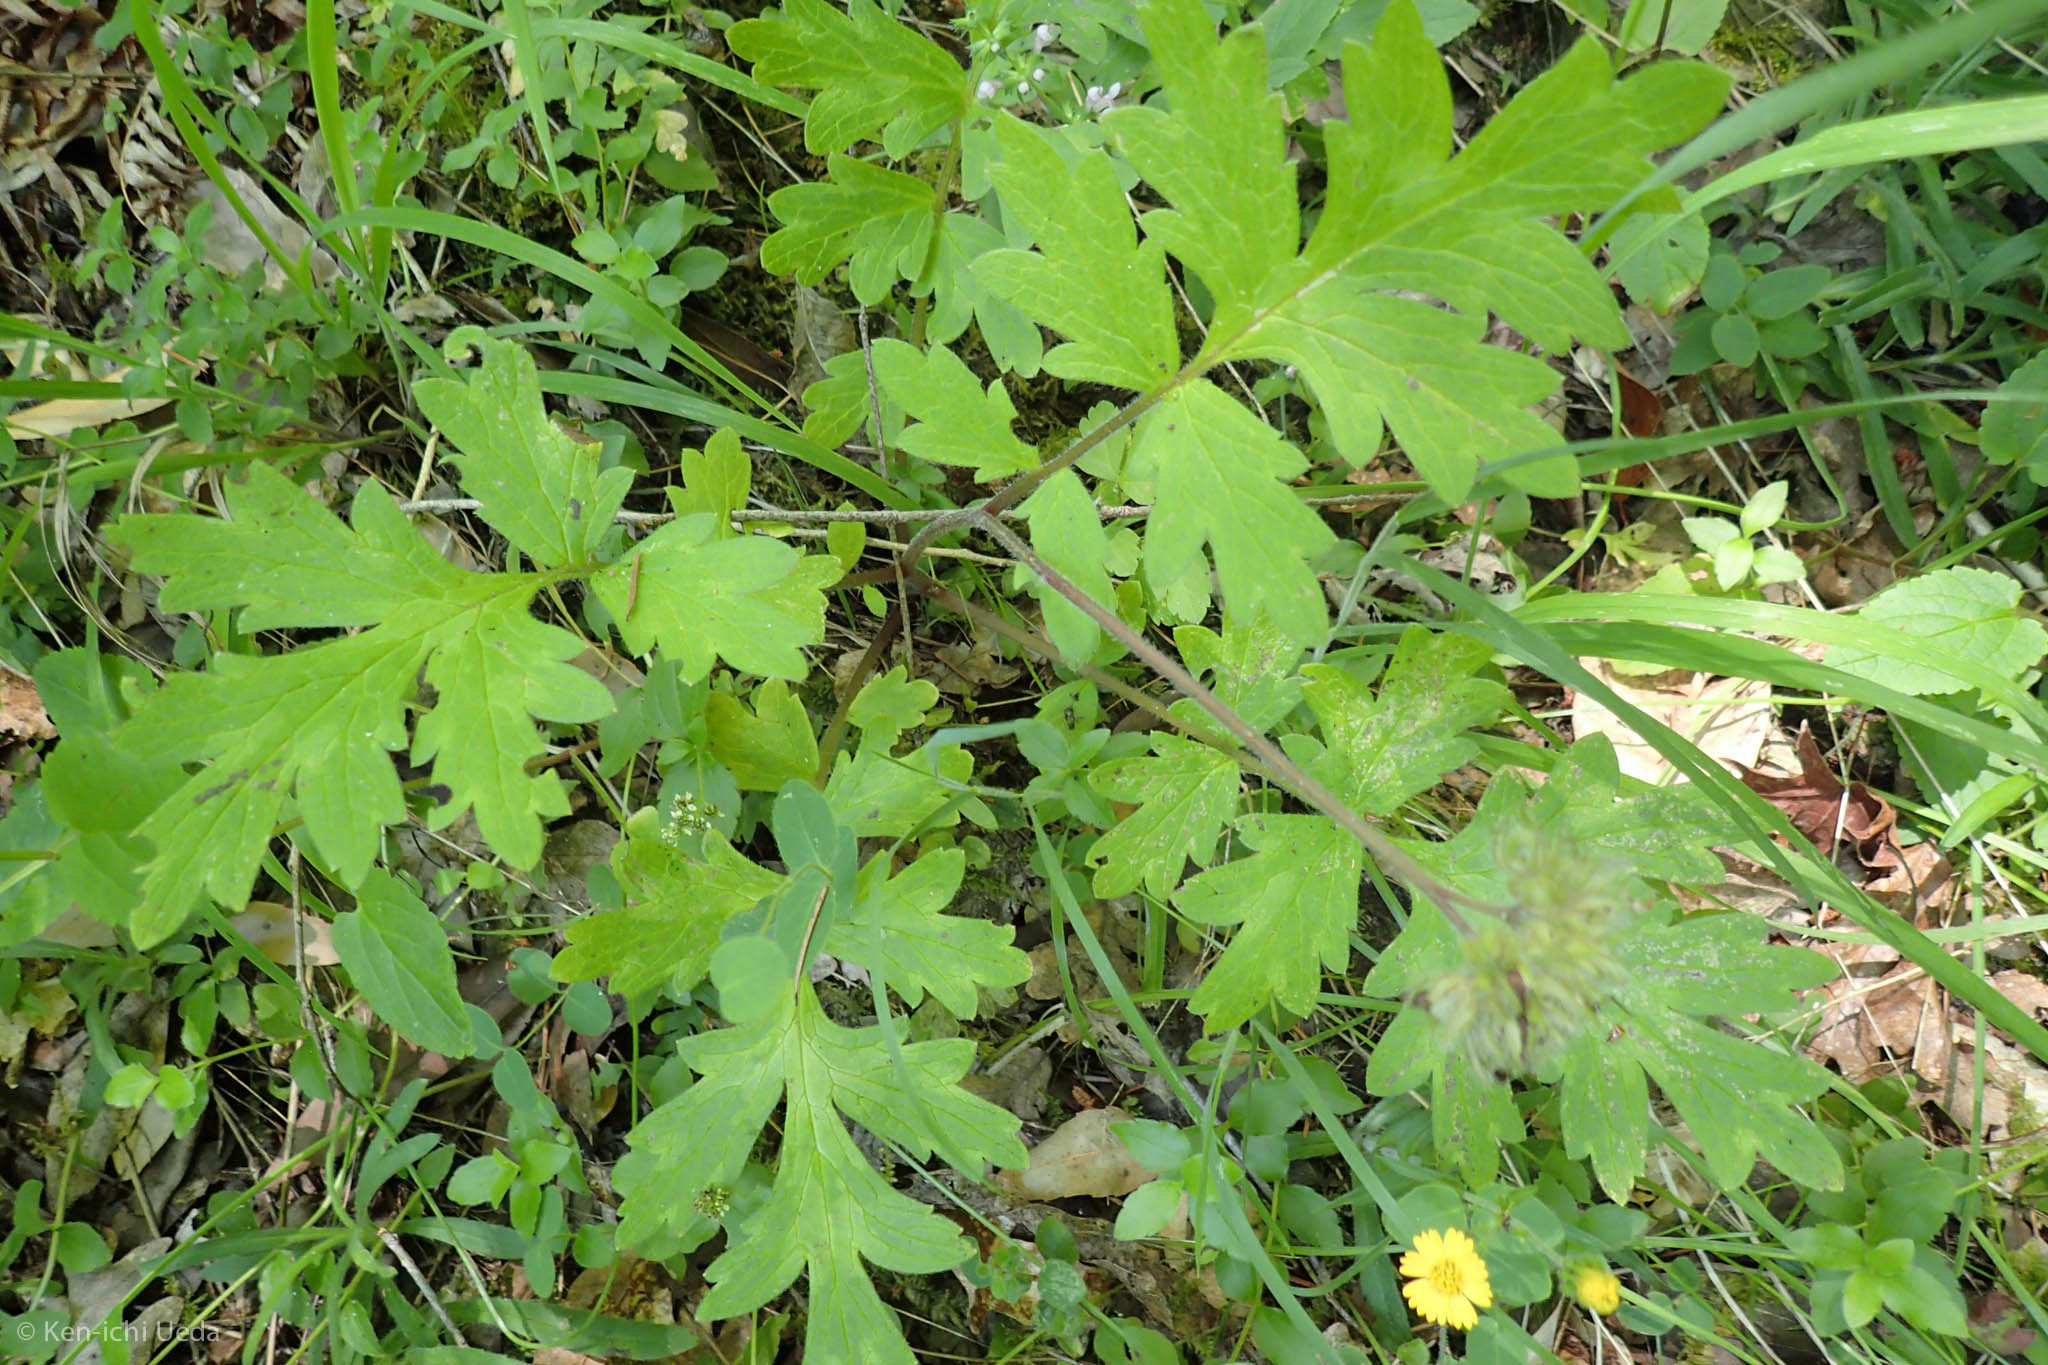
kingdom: Plantae
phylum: Tracheophyta
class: Magnoliopsida
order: Boraginales
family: Hydrophyllaceae
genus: Hydrophyllum
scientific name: Hydrophyllum occidentale
